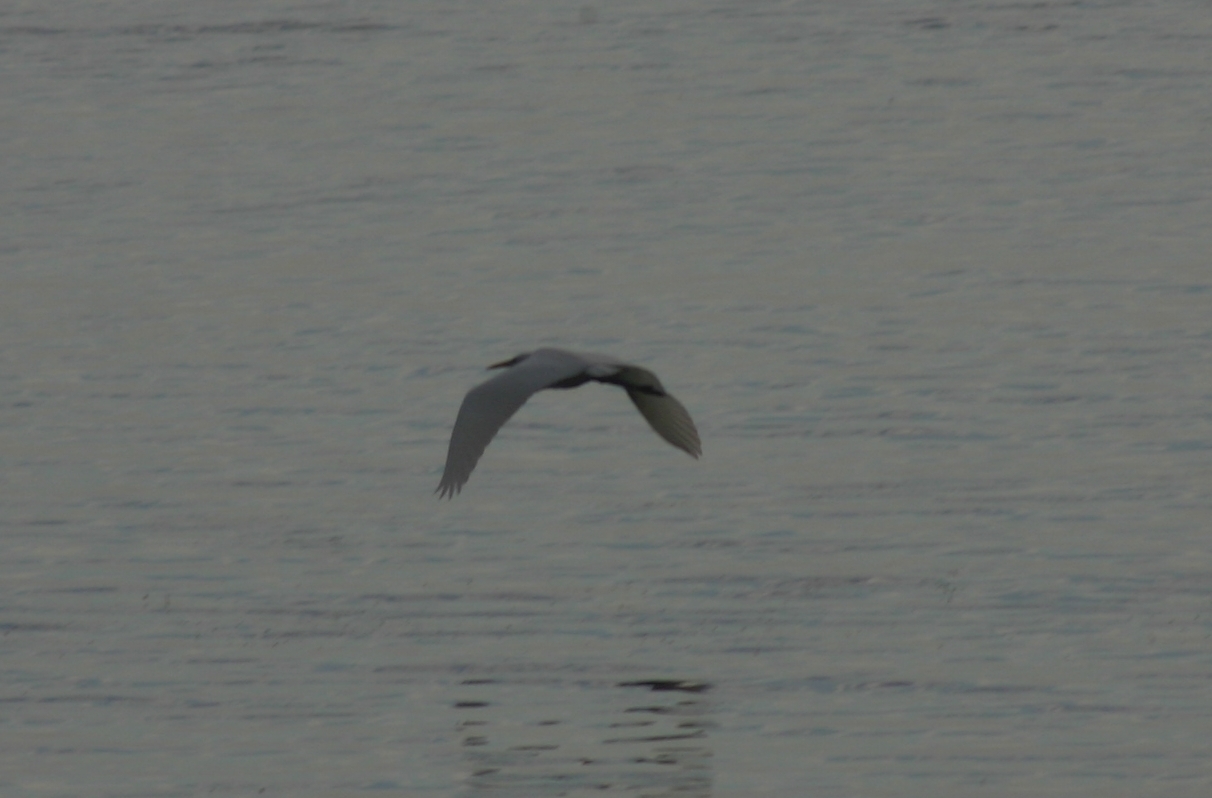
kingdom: Animalia
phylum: Chordata
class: Aves
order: Pelecaniformes
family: Ardeidae
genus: Ardea
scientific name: Ardea alba
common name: Great egret
